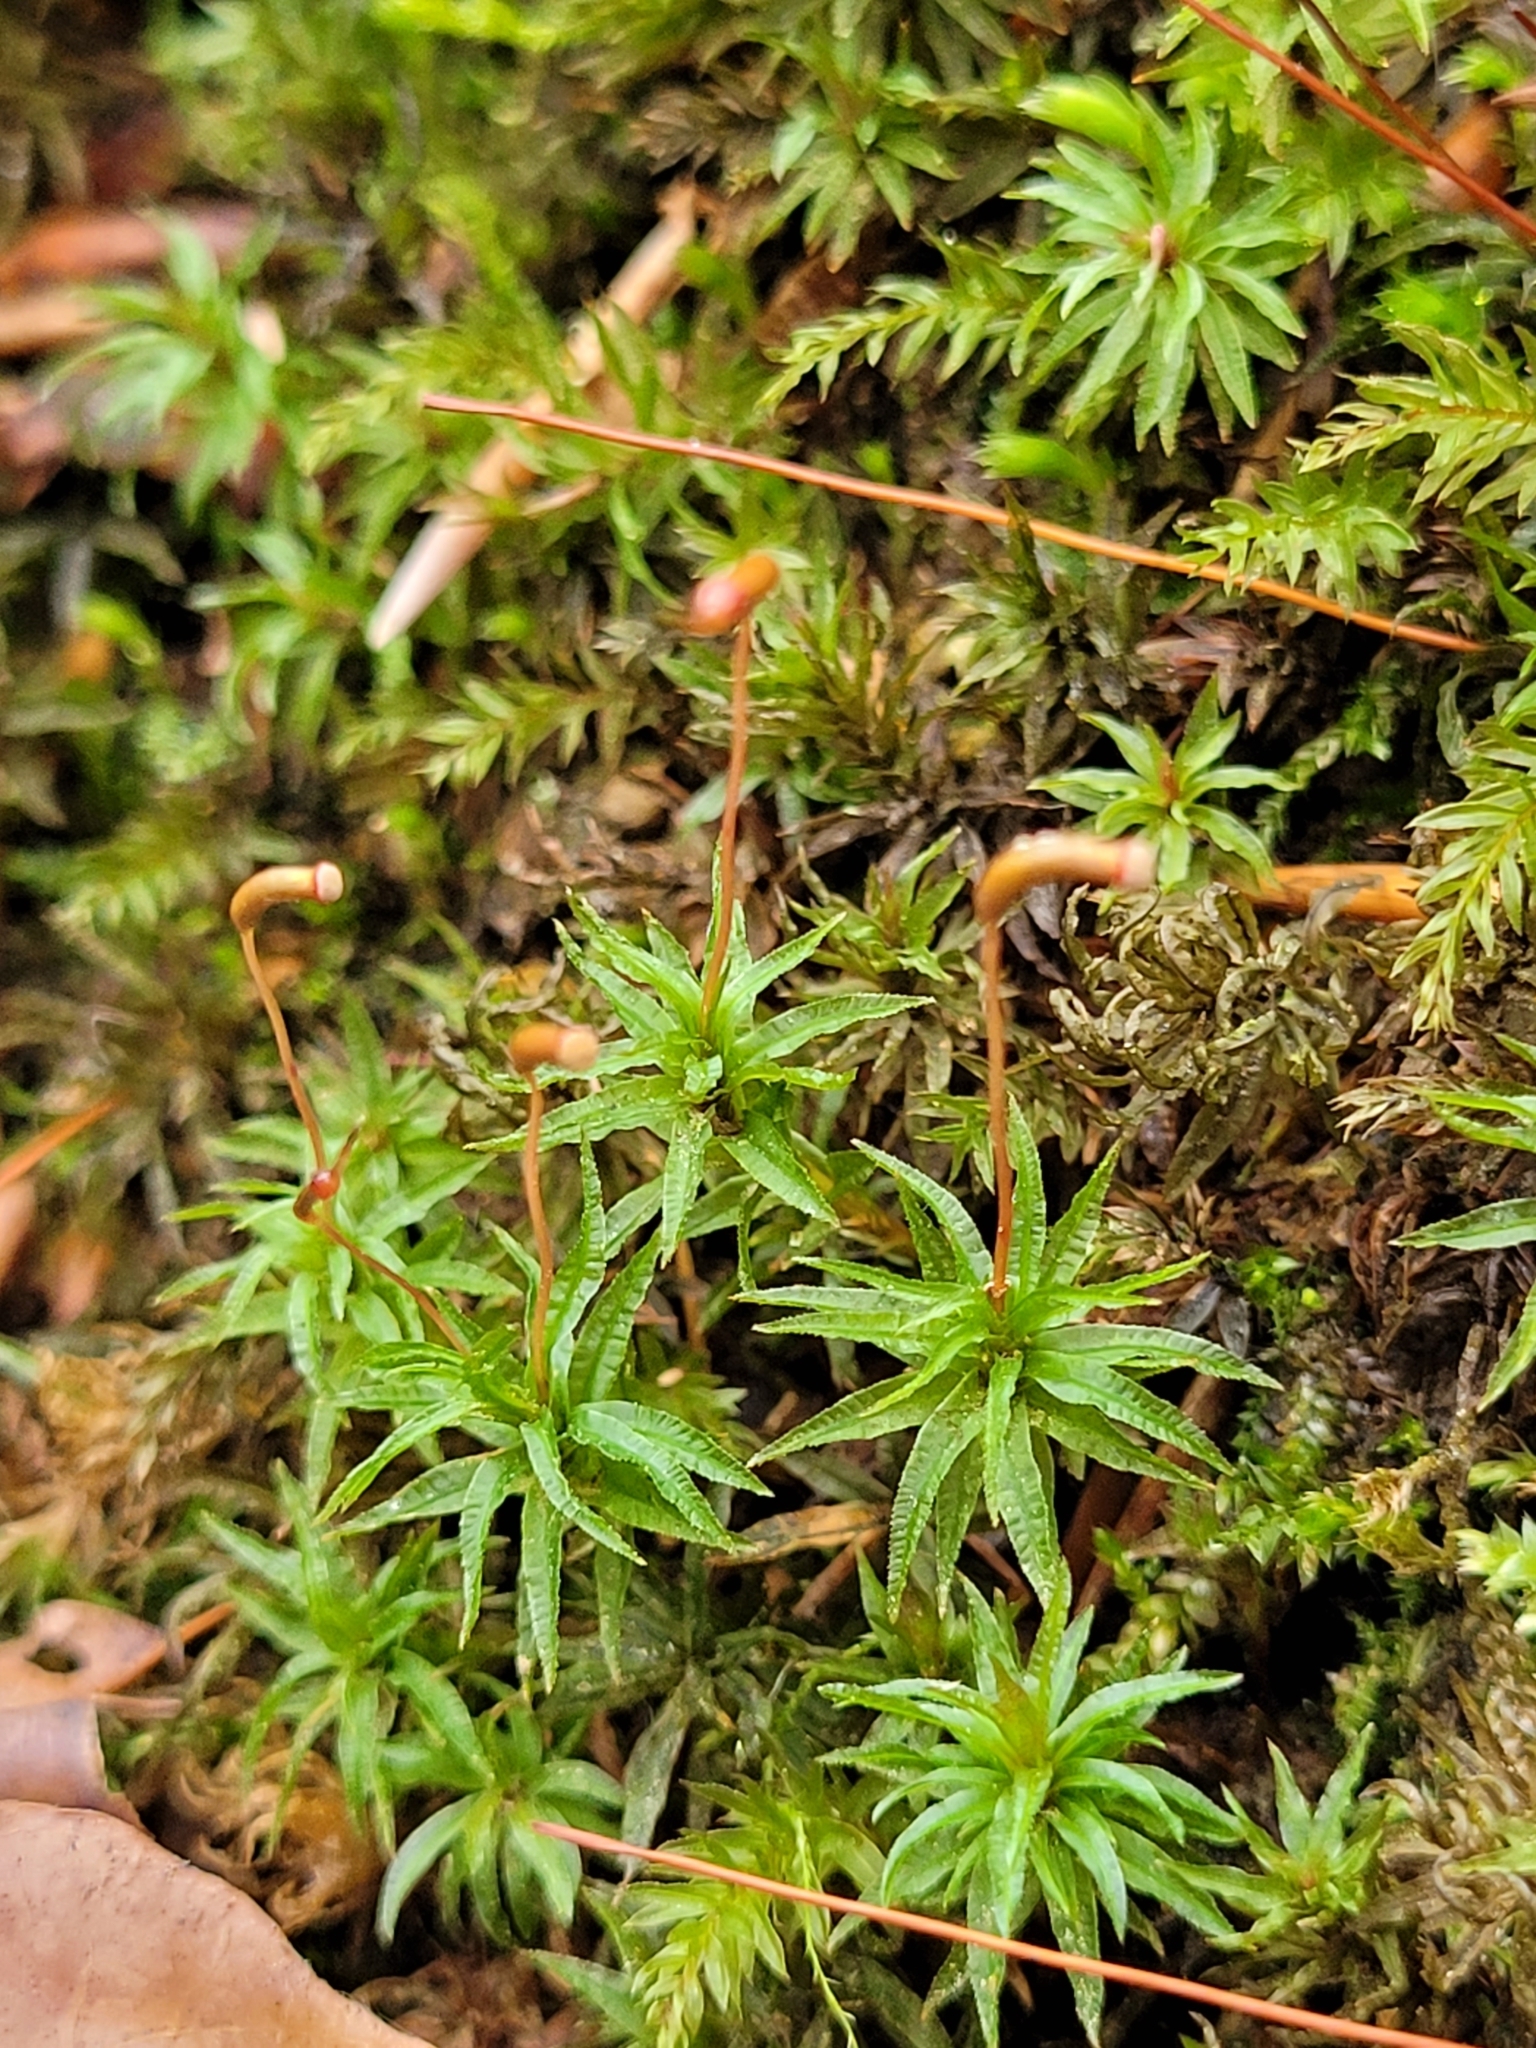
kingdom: Plantae
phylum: Bryophyta
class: Polytrichopsida
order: Polytrichales
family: Polytrichaceae
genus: Atrichum
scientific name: Atrichum undulatum
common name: Common smoothcap
